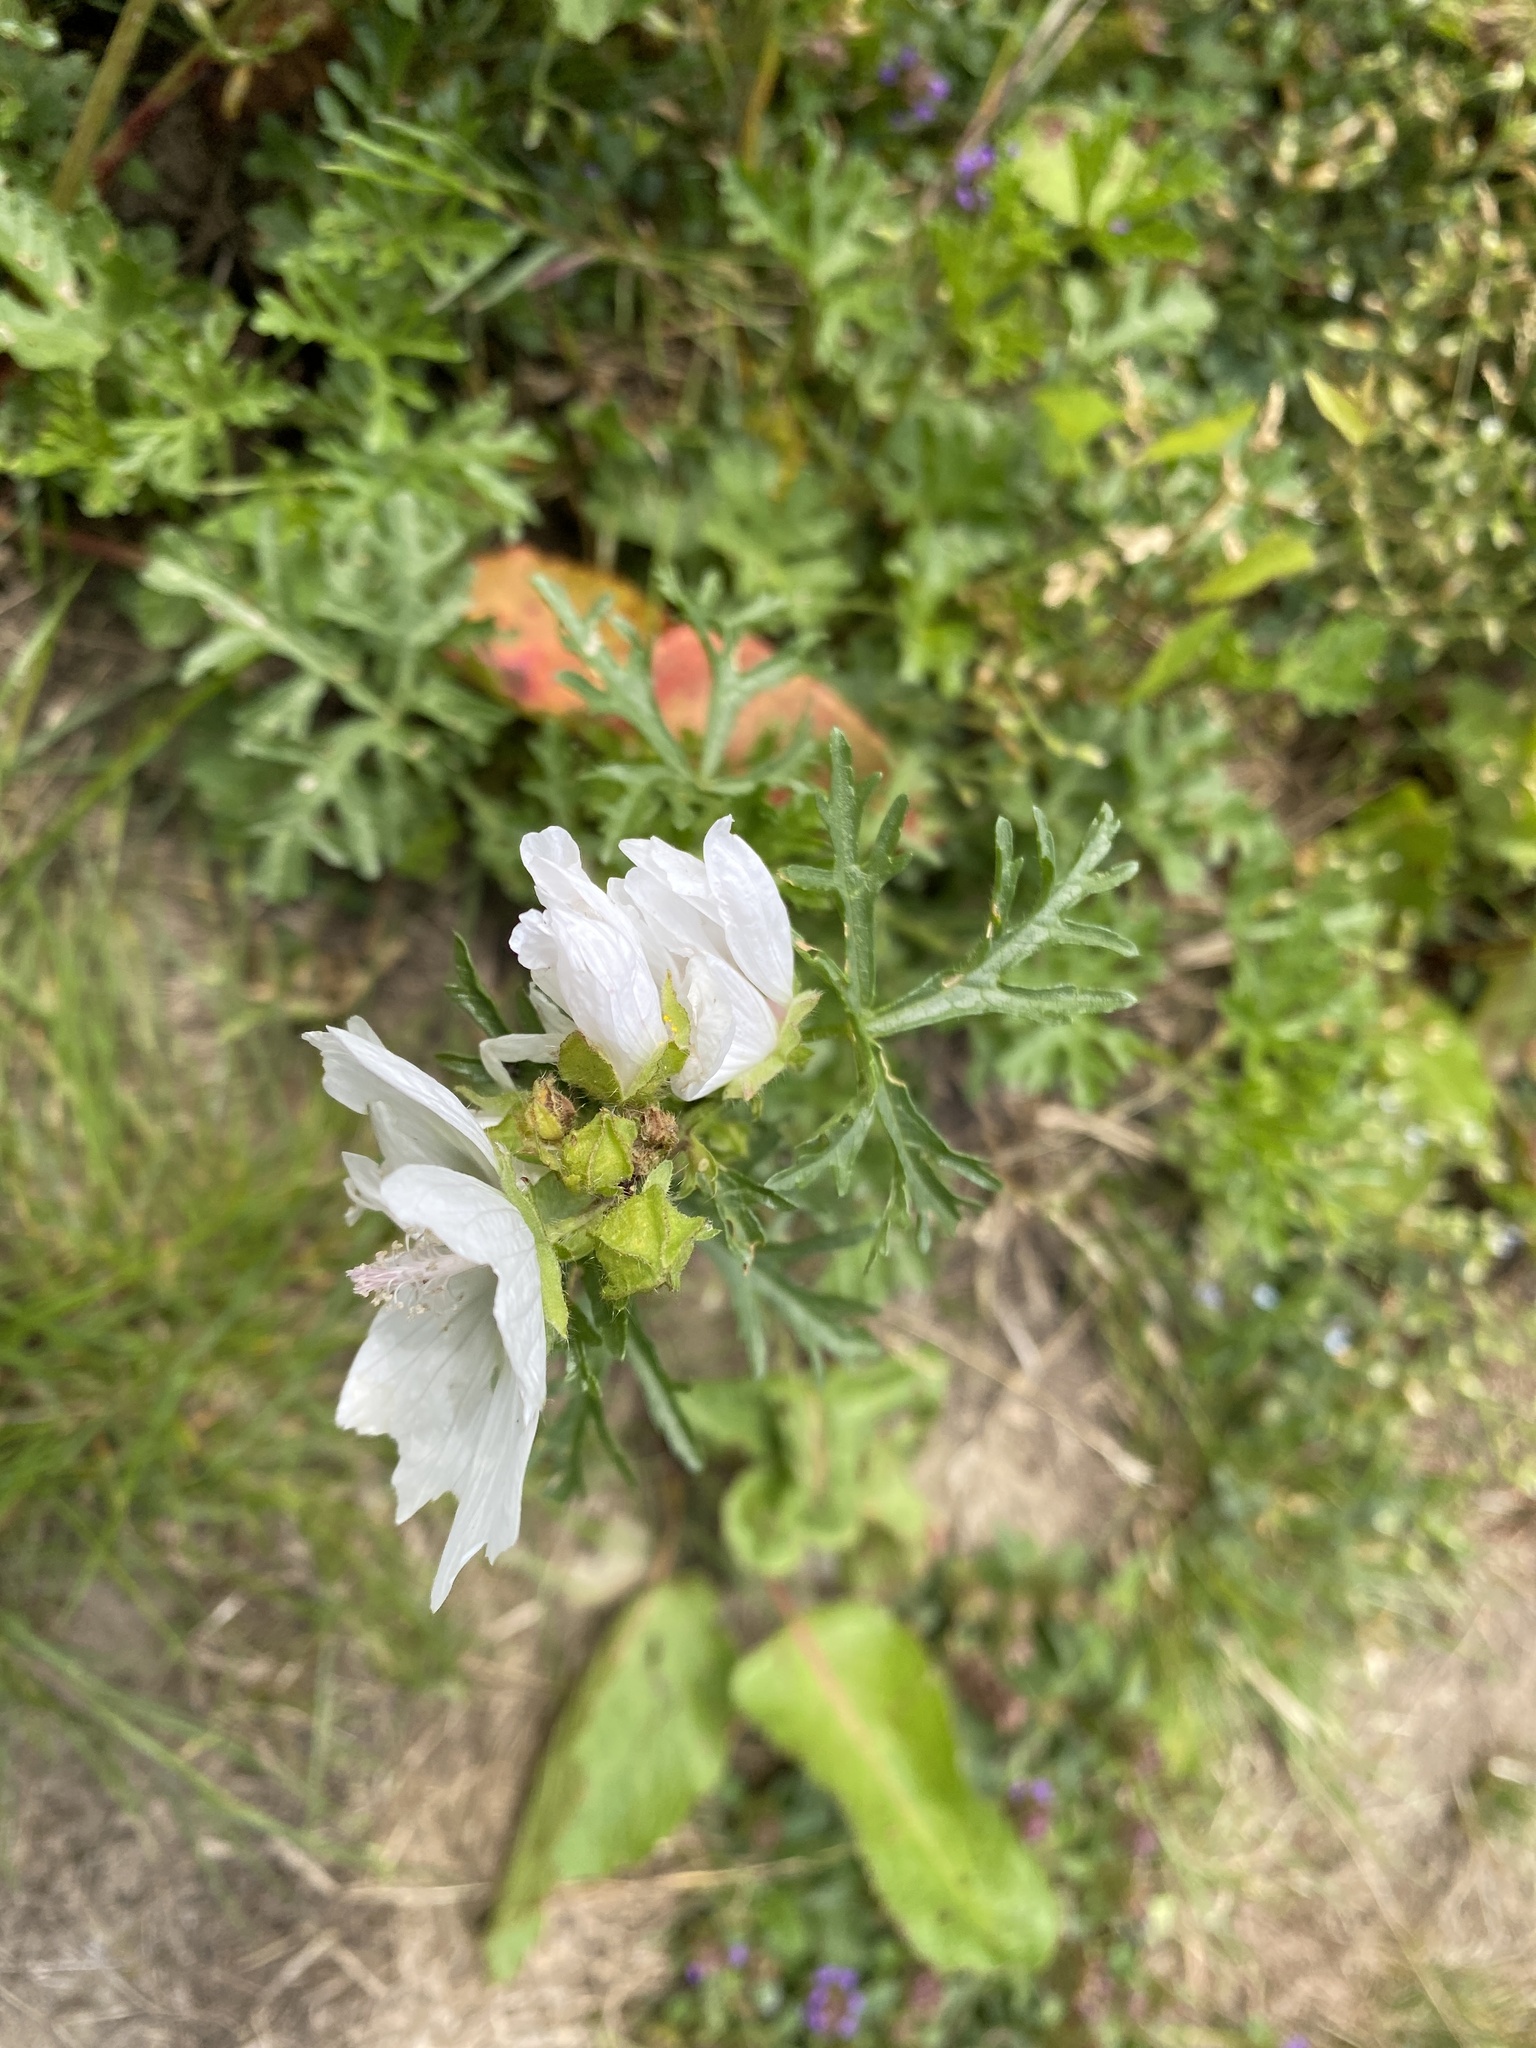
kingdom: Plantae
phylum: Tracheophyta
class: Magnoliopsida
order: Malvales
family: Malvaceae
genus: Malva
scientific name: Malva moschata
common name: Musk mallow
